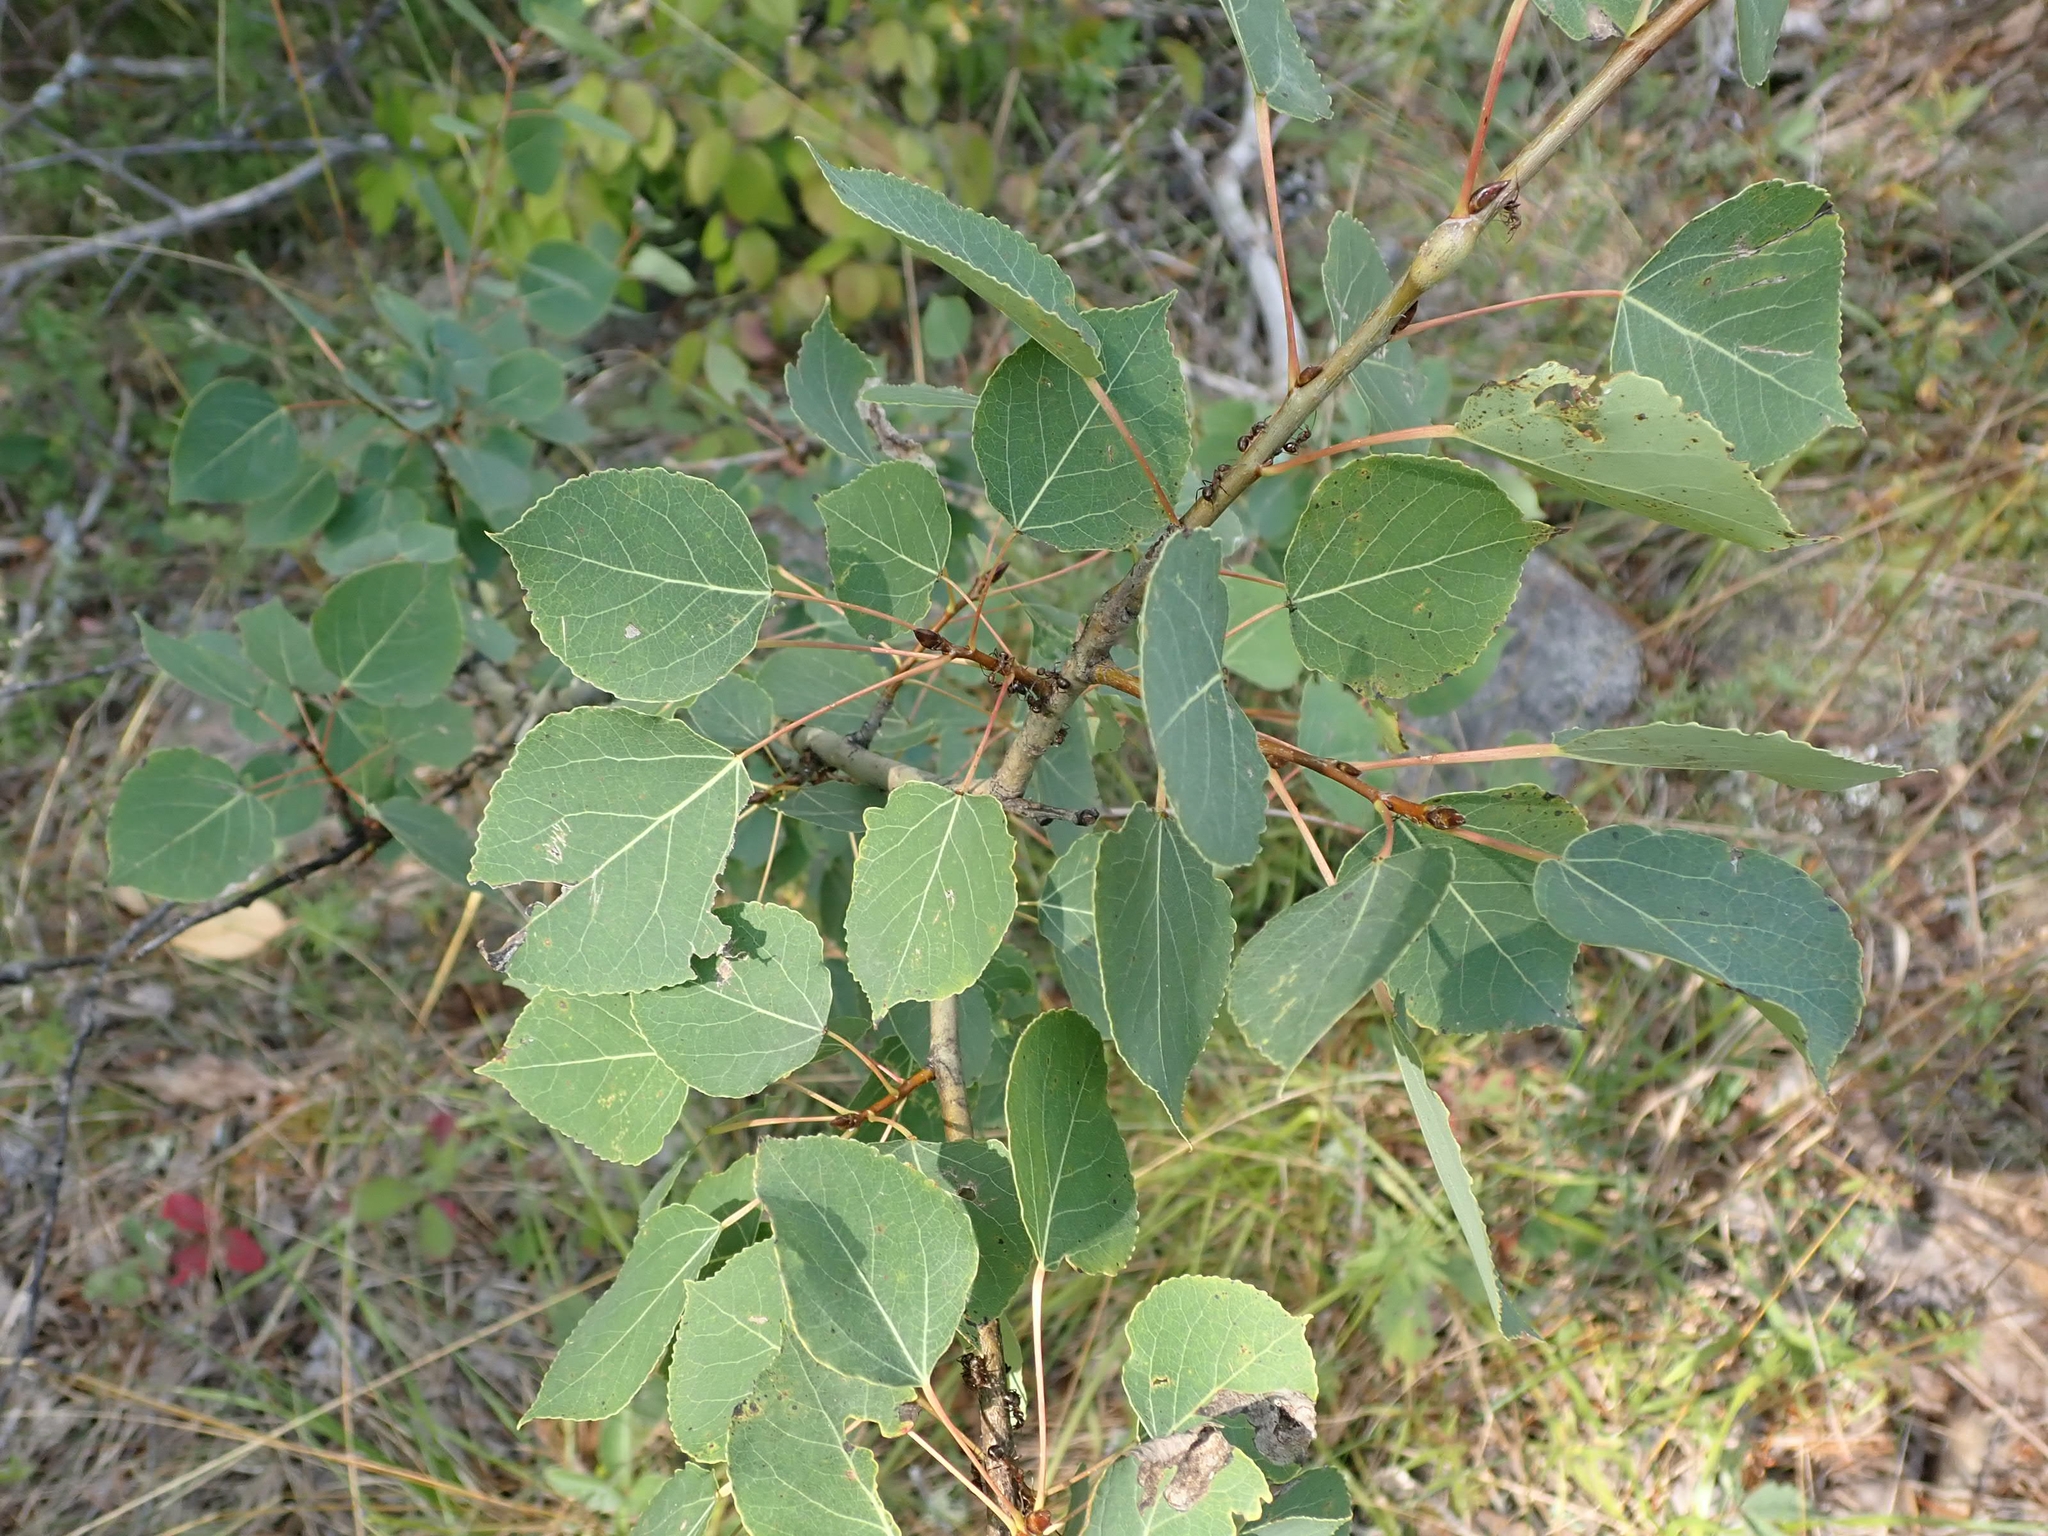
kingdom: Plantae
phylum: Tracheophyta
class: Magnoliopsida
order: Malpighiales
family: Salicaceae
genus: Populus
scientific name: Populus tremuloides
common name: Quaking aspen
